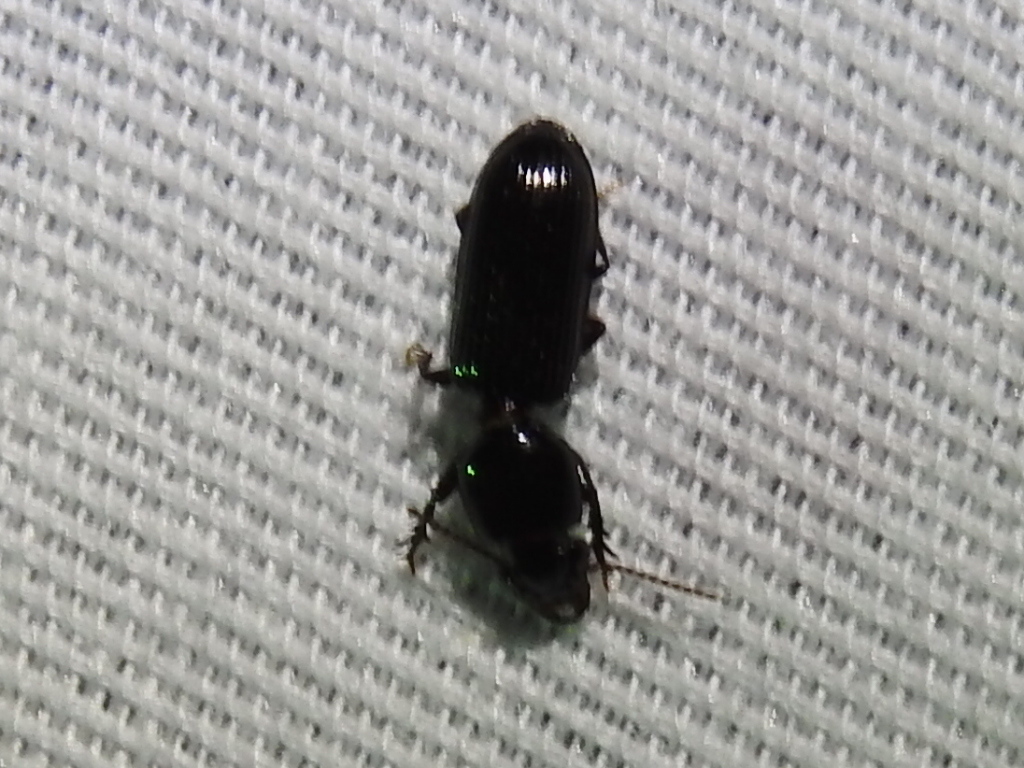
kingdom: Animalia
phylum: Arthropoda
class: Insecta
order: Coleoptera
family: Carabidae
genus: Semiclivina
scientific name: Semiclivina dentipes
